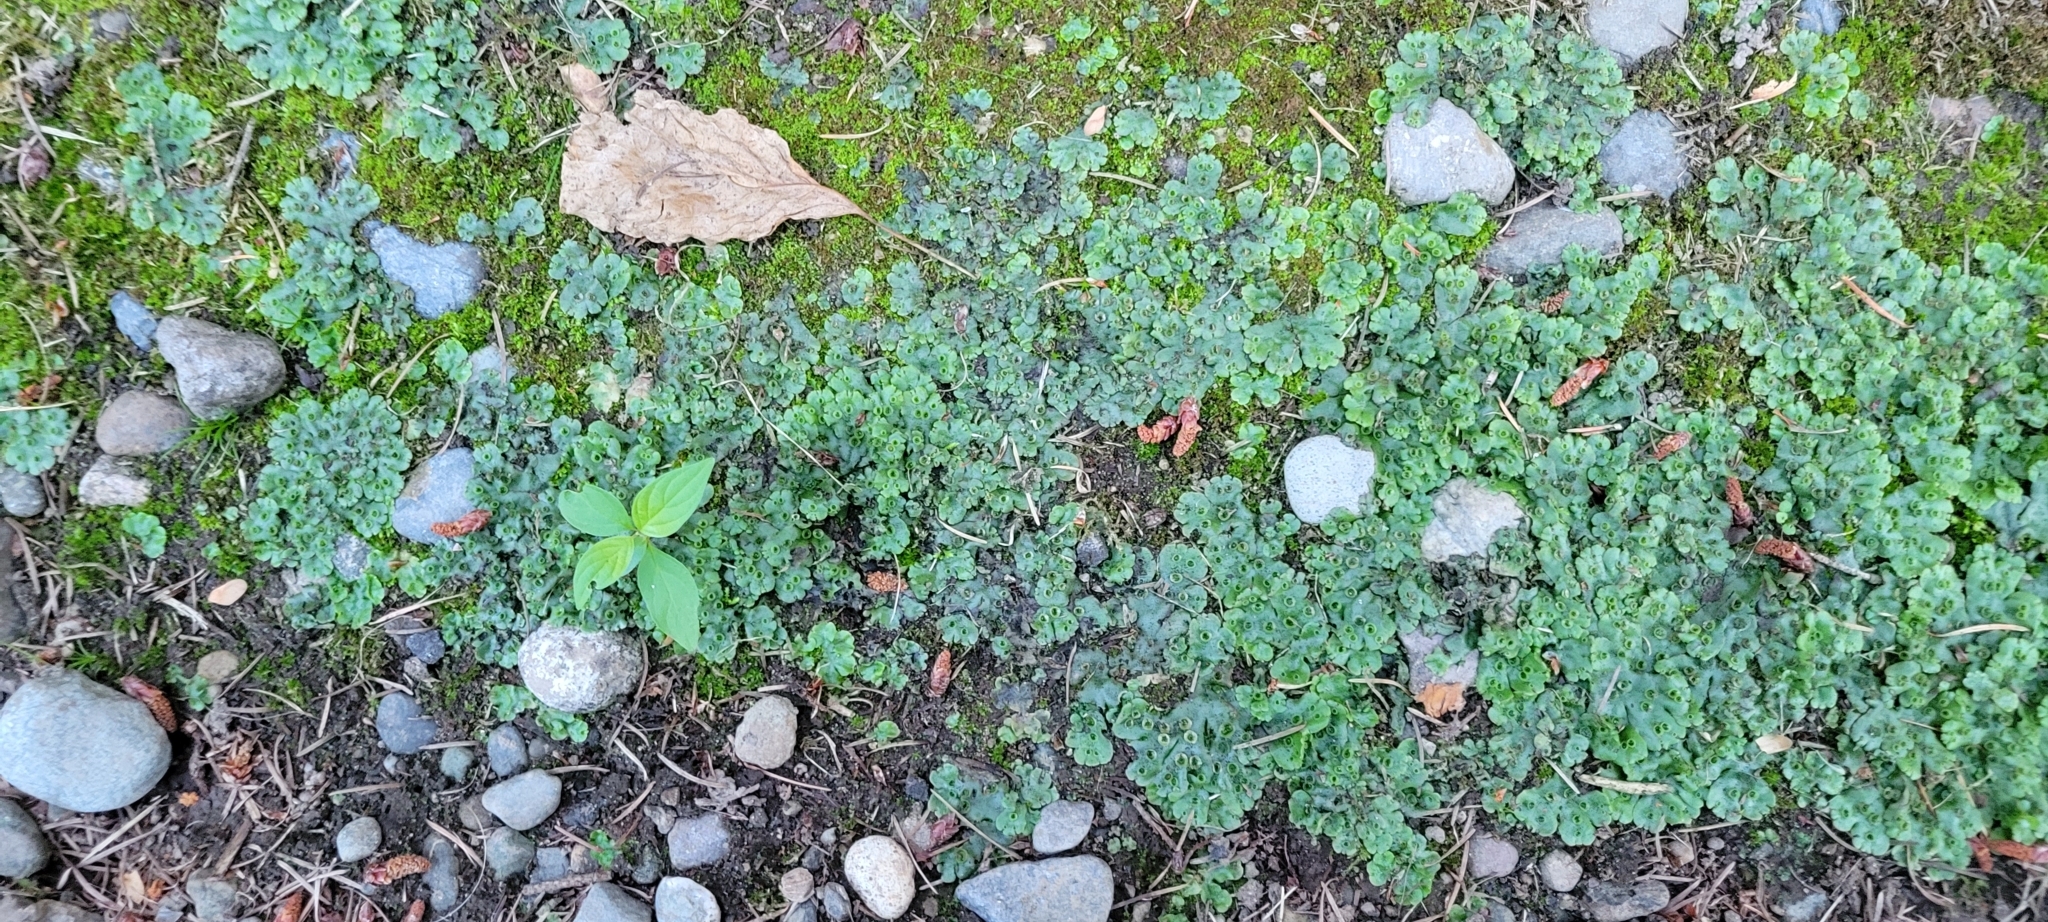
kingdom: Plantae
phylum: Marchantiophyta
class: Marchantiopsida
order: Marchantiales
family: Marchantiaceae
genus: Marchantia
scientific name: Marchantia polymorpha
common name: Common liverwort
